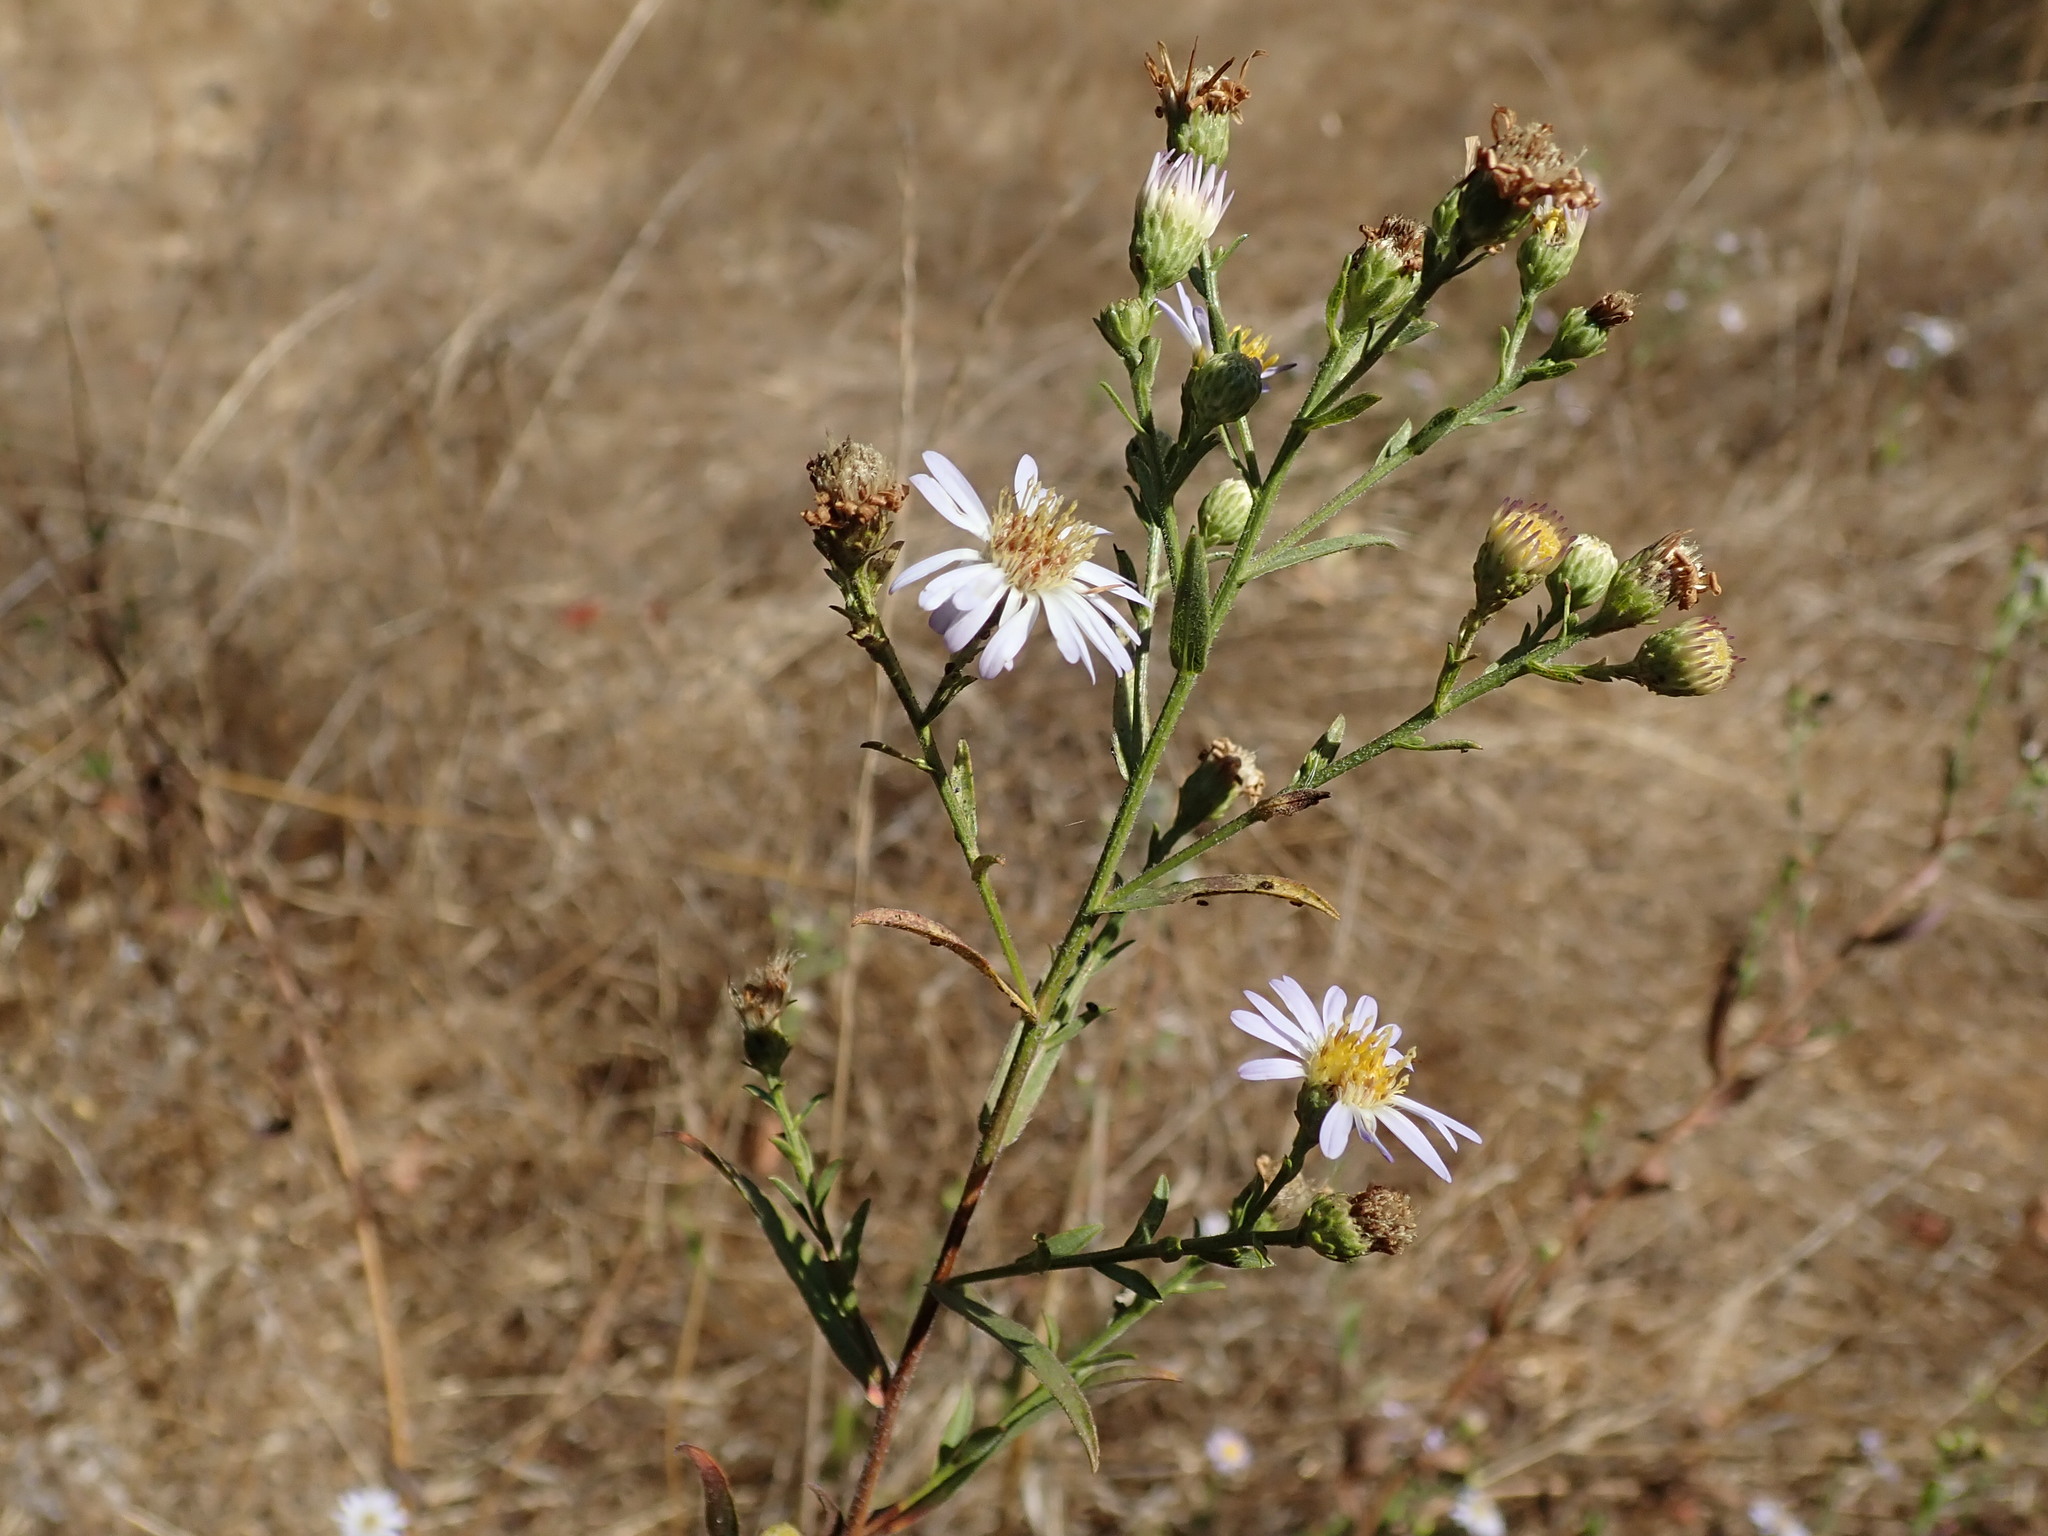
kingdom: Plantae
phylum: Tracheophyta
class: Magnoliopsida
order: Asterales
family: Asteraceae
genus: Symphyotrichum
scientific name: Symphyotrichum chilense
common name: Pacific aster
